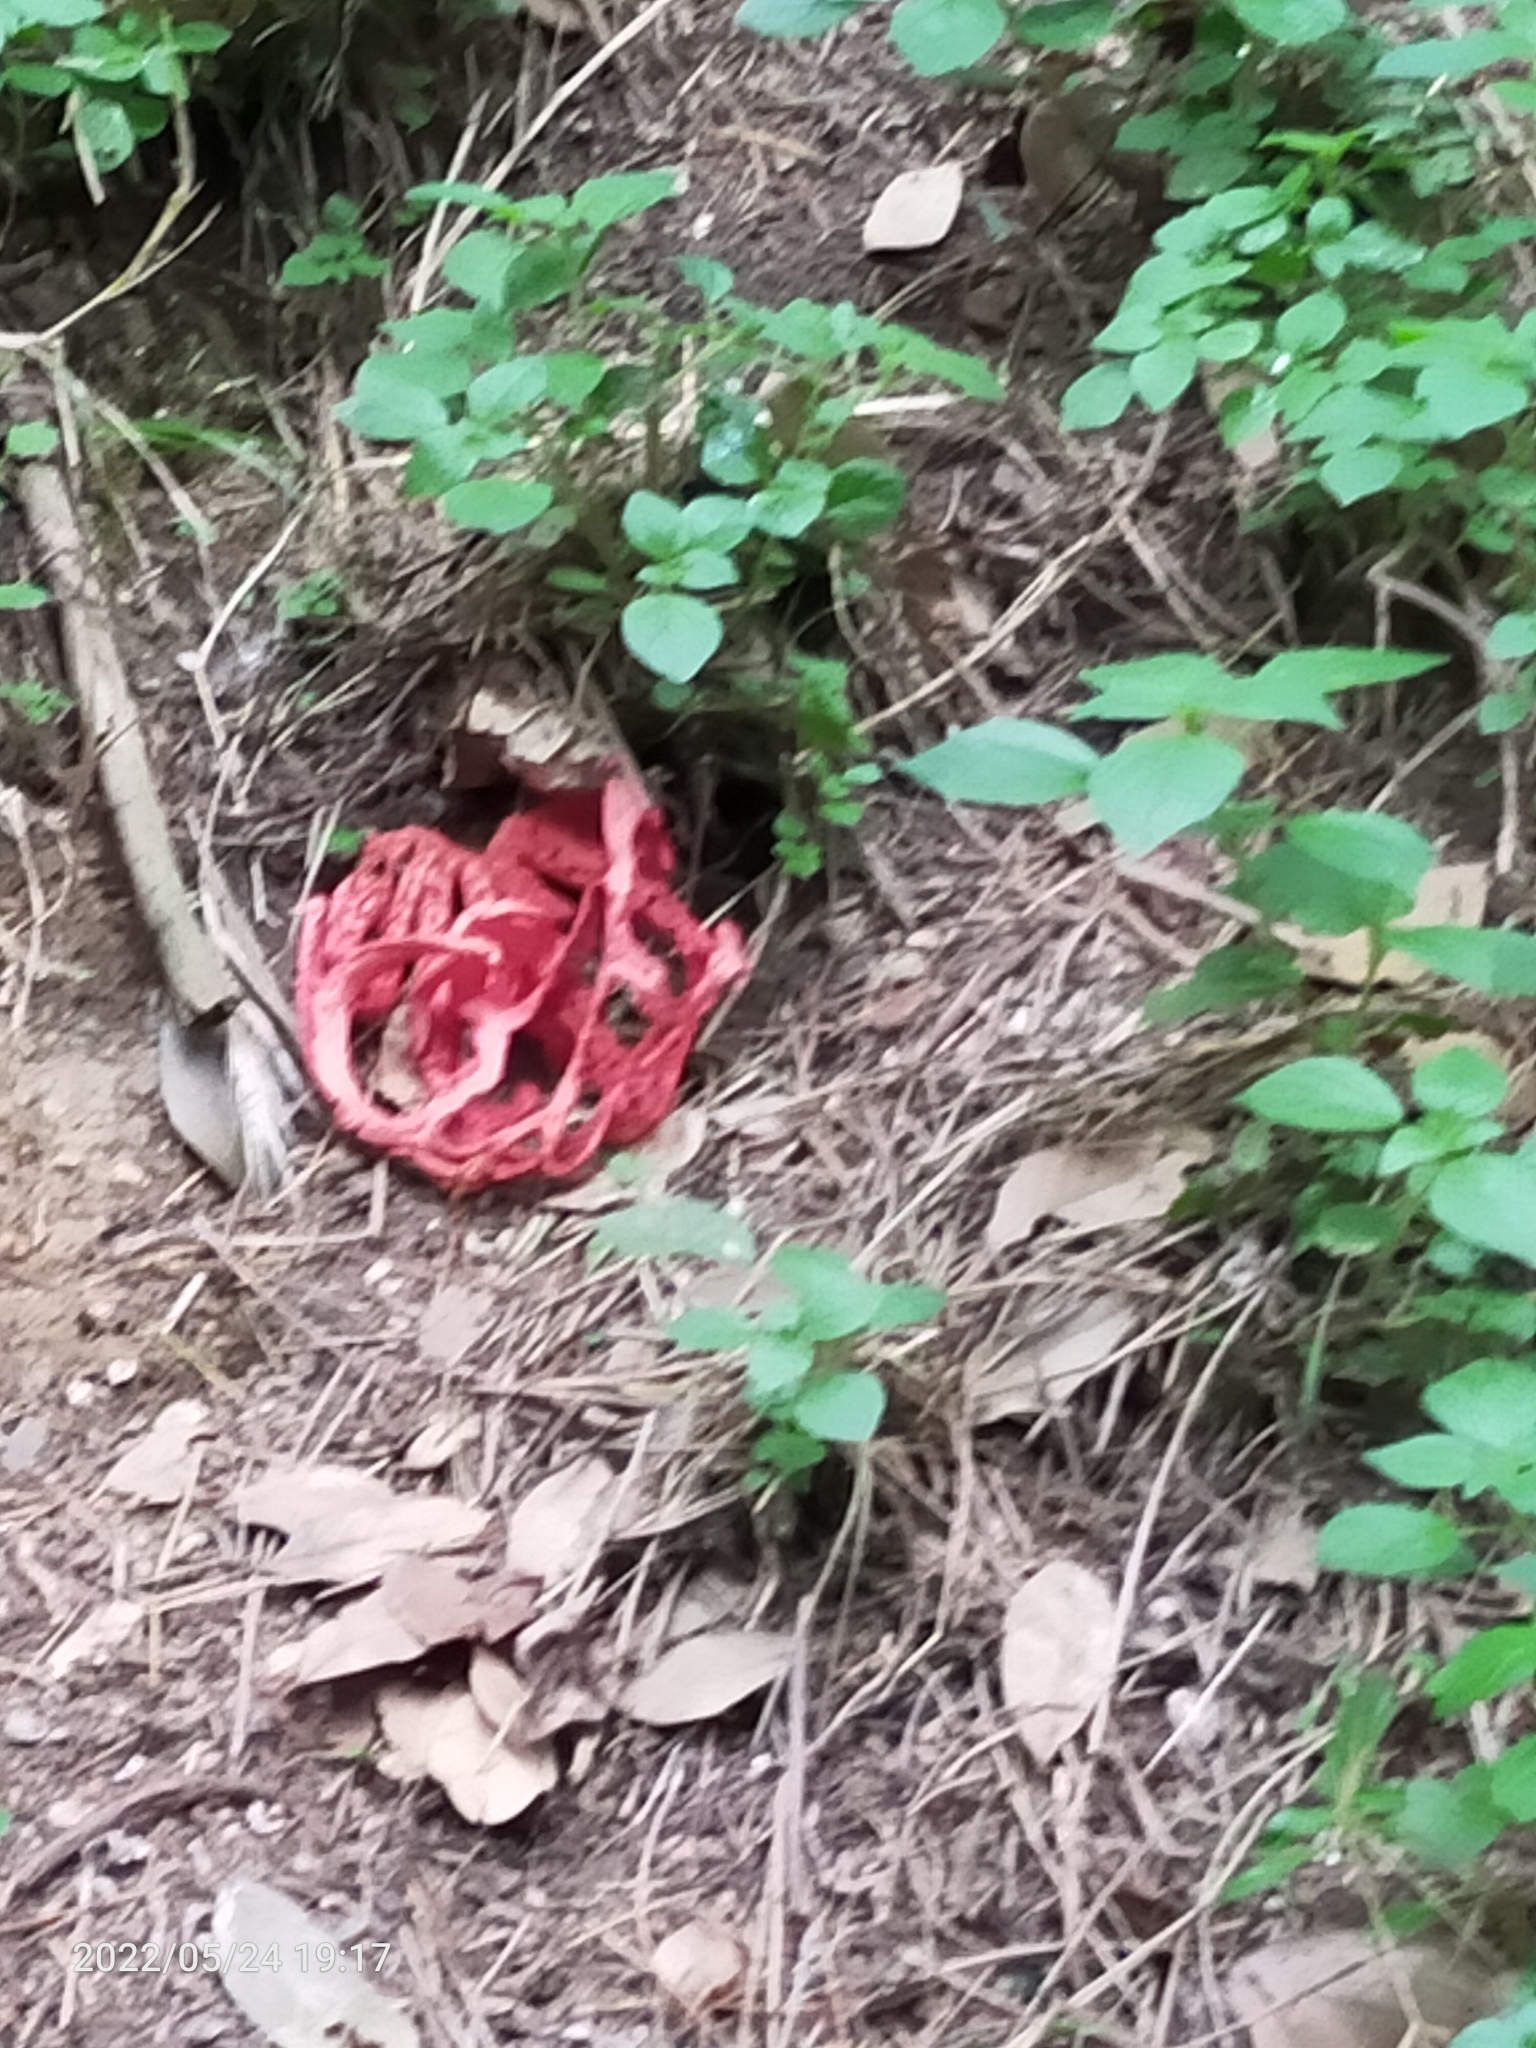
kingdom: Fungi
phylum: Basidiomycota
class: Agaricomycetes
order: Phallales
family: Phallaceae
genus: Clathrus
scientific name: Clathrus ruber
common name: Red cage
